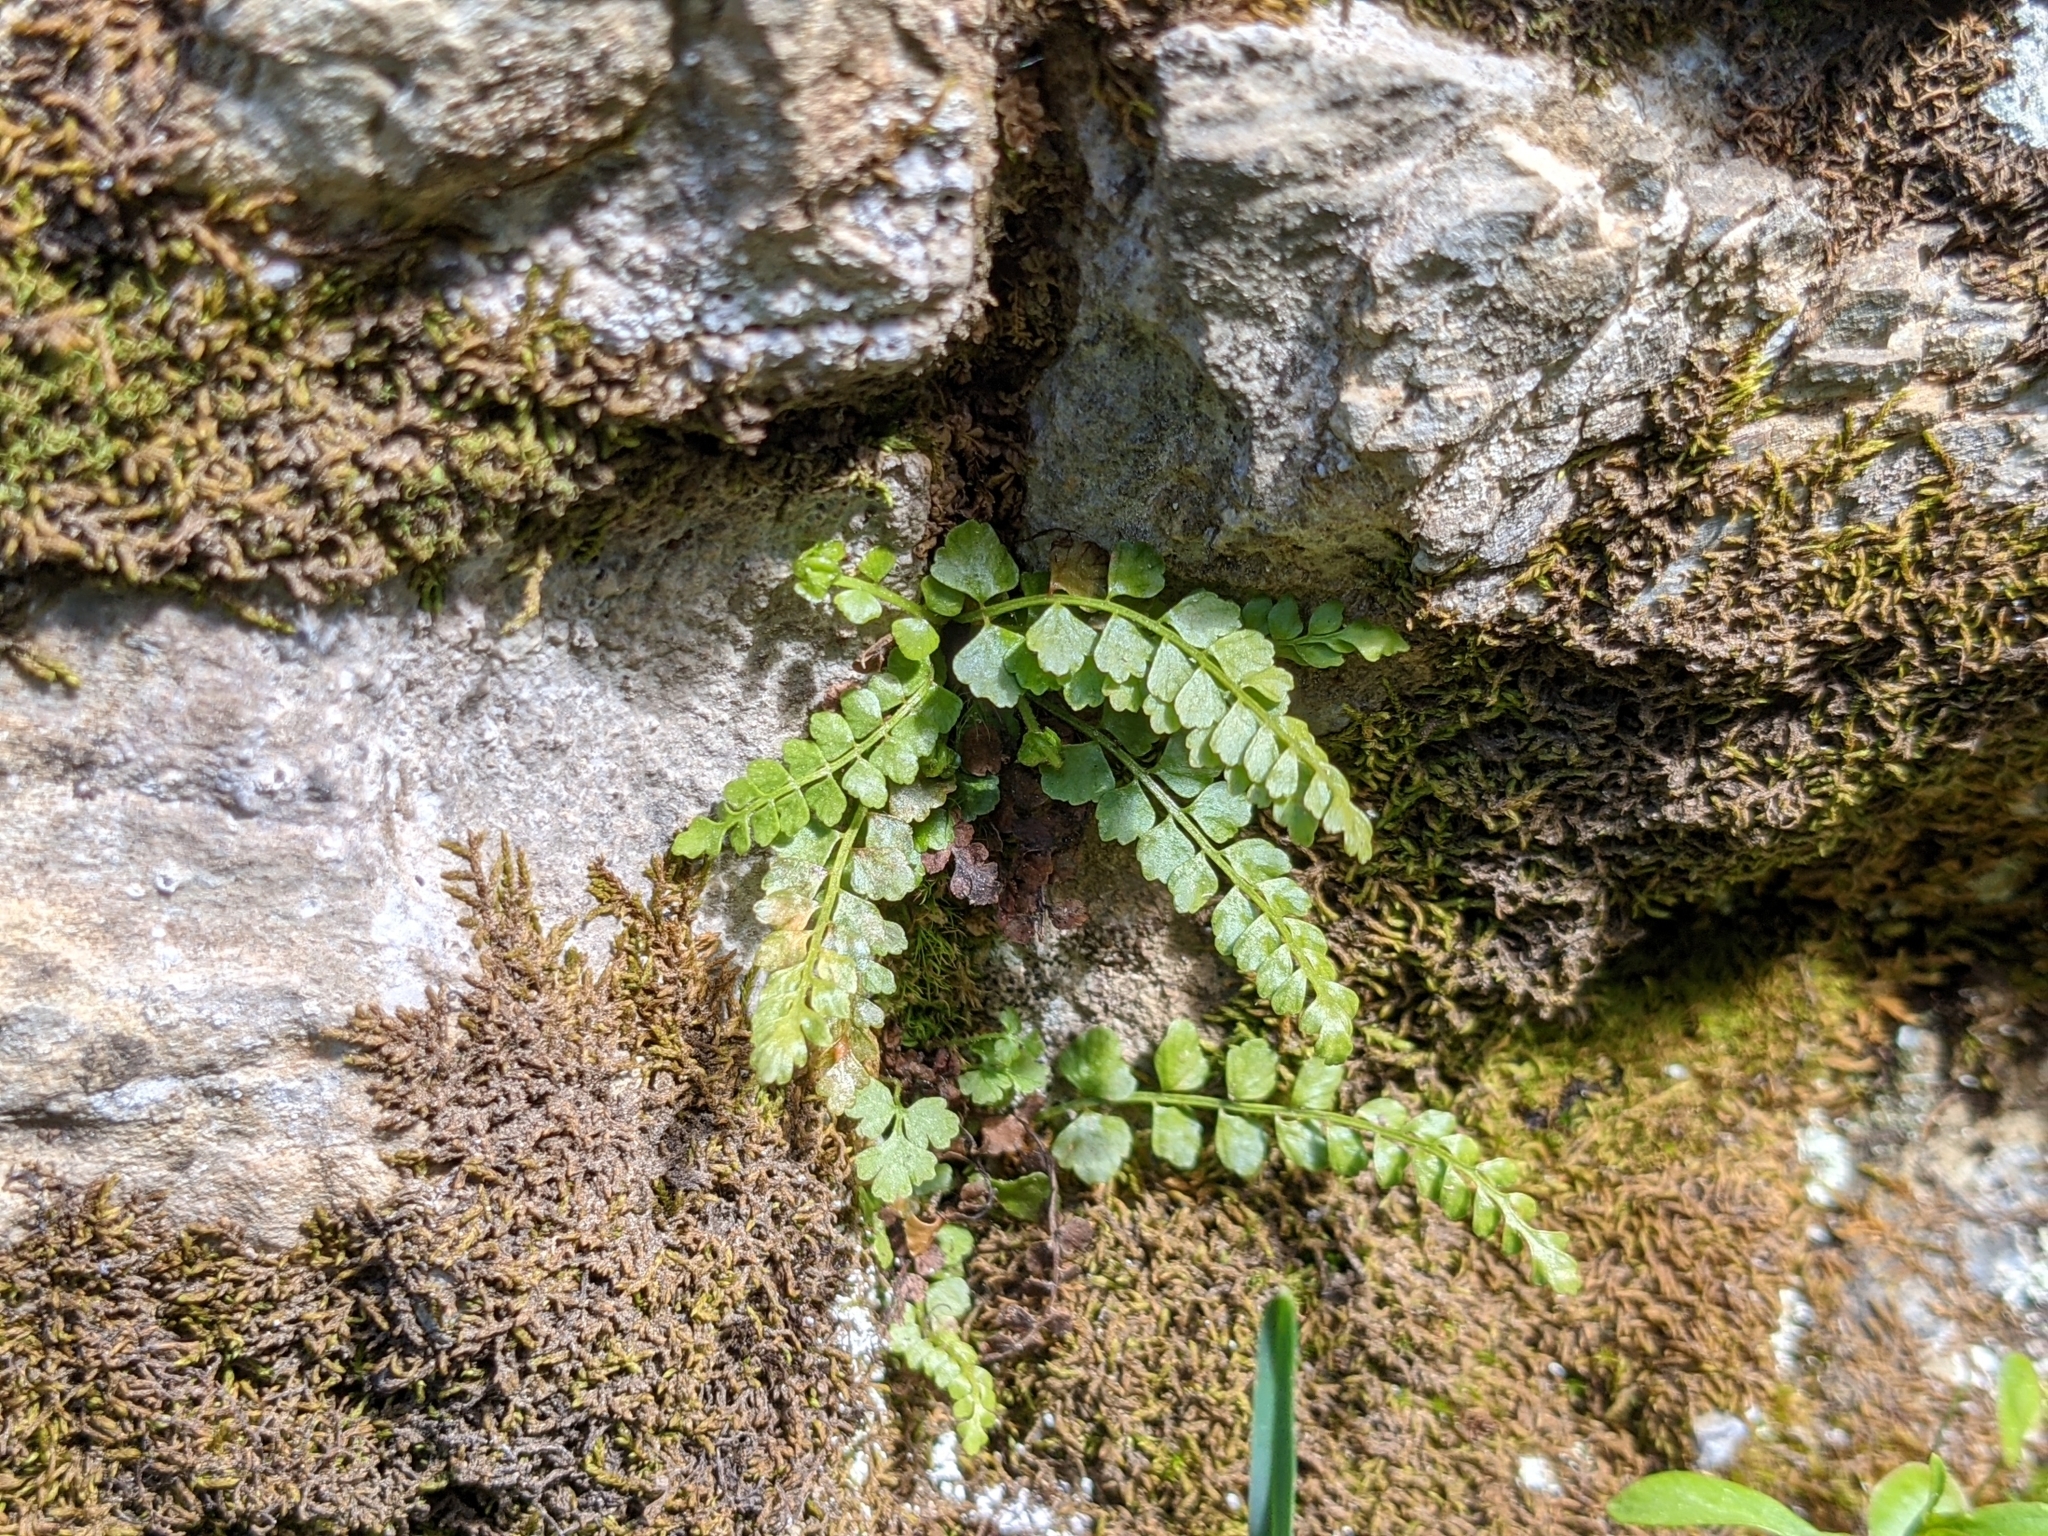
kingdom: Plantae
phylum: Tracheophyta
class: Polypodiopsida
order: Polypodiales
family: Aspleniaceae
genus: Asplenium
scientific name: Asplenium viride
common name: Green spleenwort
